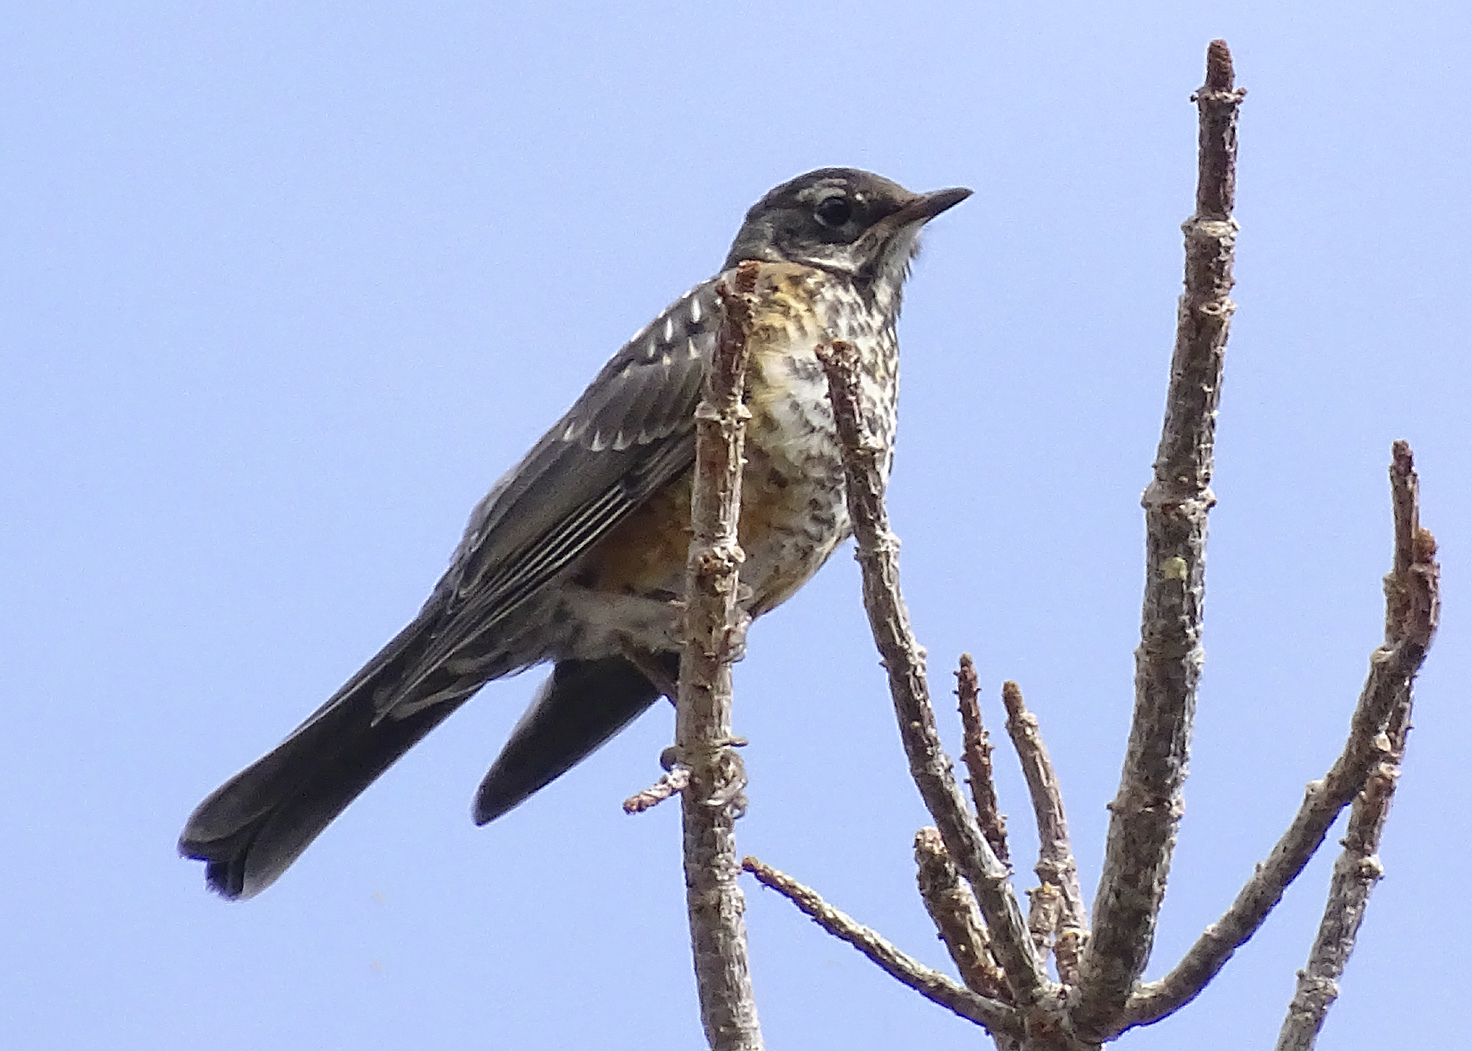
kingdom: Animalia
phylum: Chordata
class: Aves
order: Passeriformes
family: Turdidae
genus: Turdus
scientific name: Turdus migratorius
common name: American robin
